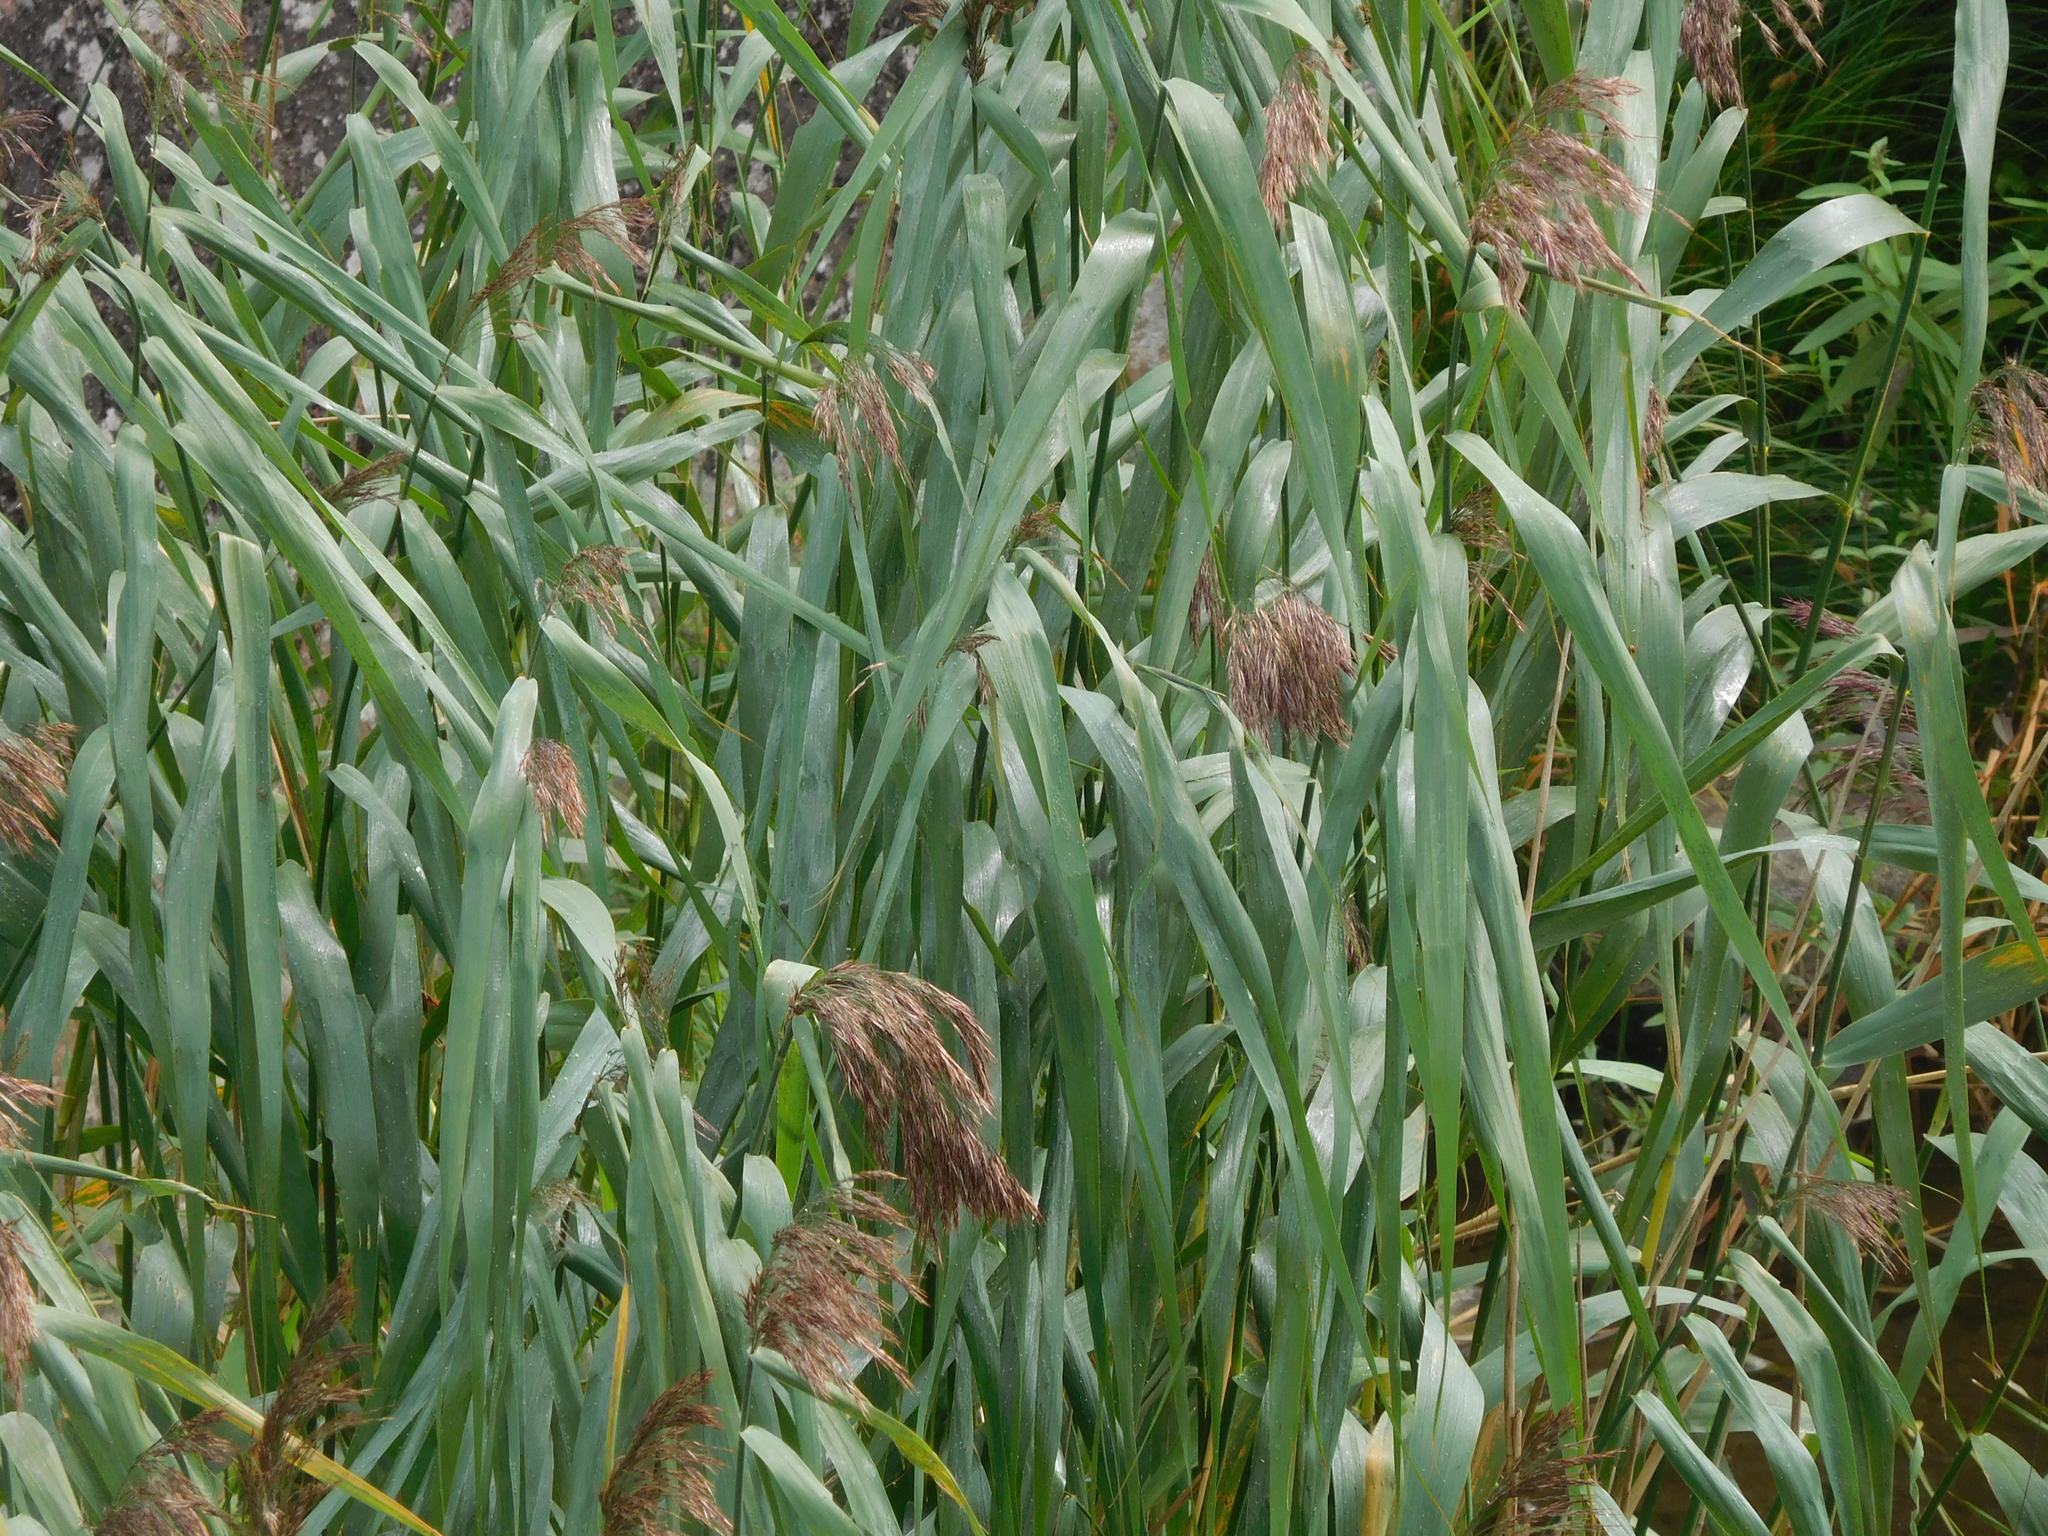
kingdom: Plantae
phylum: Tracheophyta
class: Liliopsida
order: Poales
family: Poaceae
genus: Phragmites
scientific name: Phragmites australis
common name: Common reed
